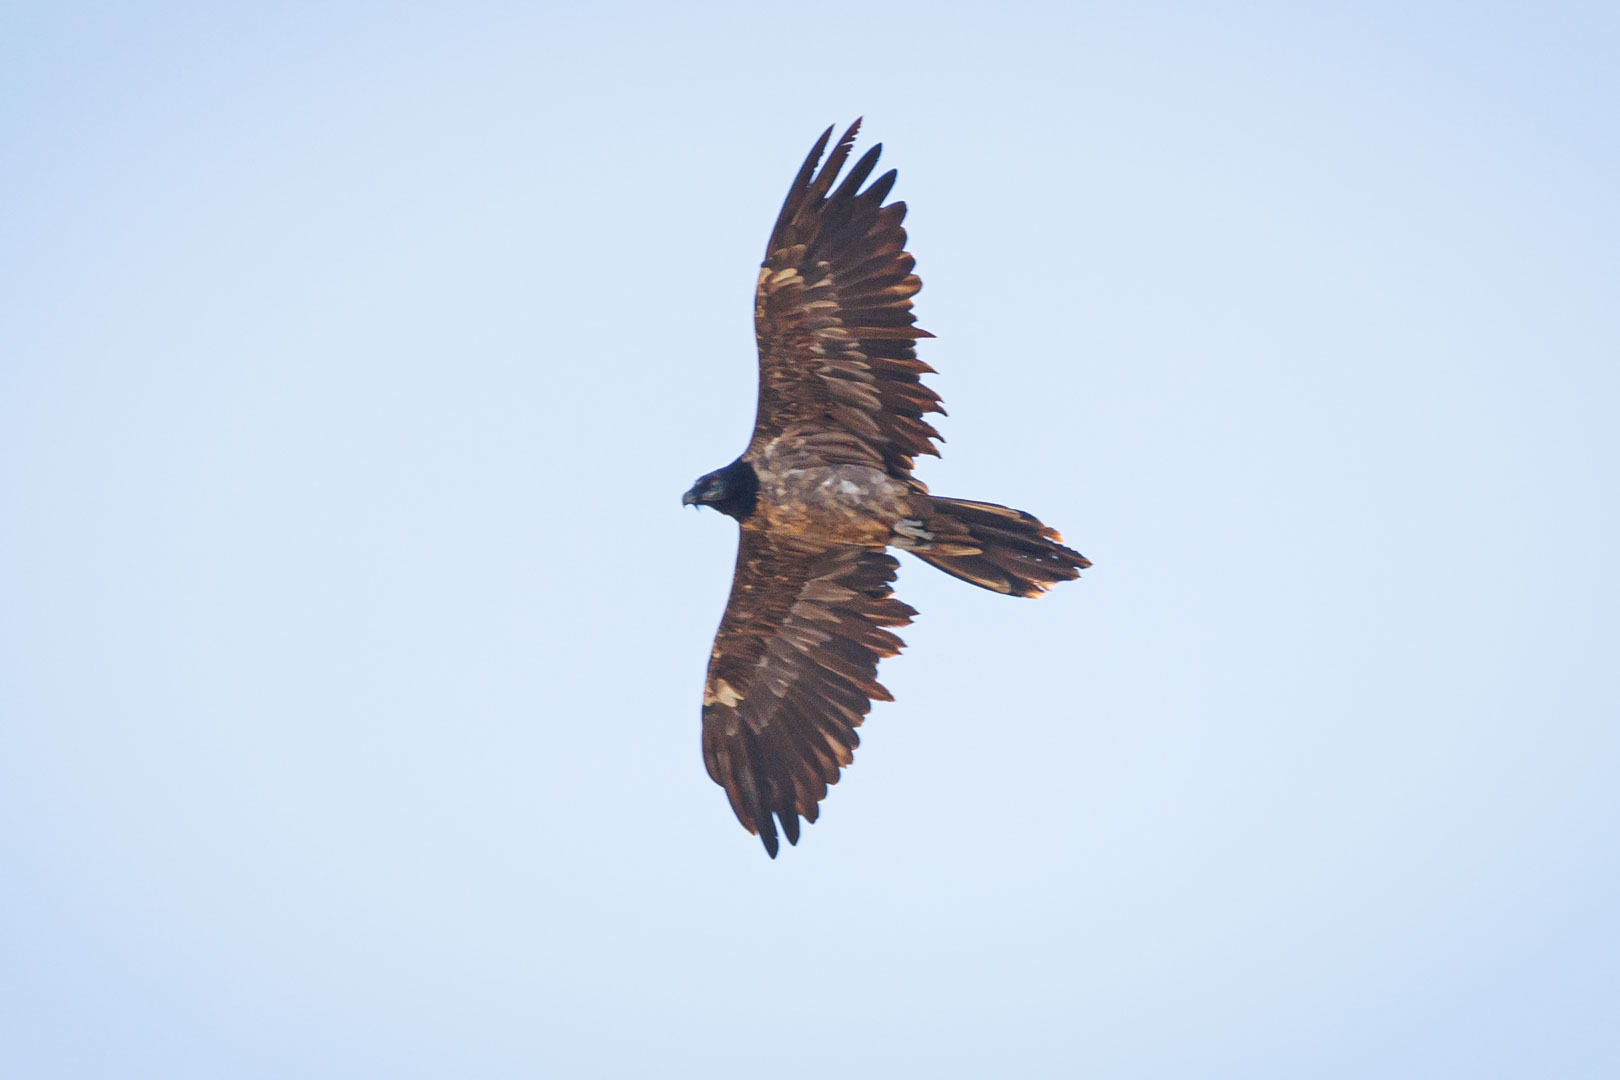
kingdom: Animalia
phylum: Chordata
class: Aves
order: Accipitriformes
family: Accipitridae
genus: Gypaetus
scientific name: Gypaetus barbatus
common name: Bearded vulture
